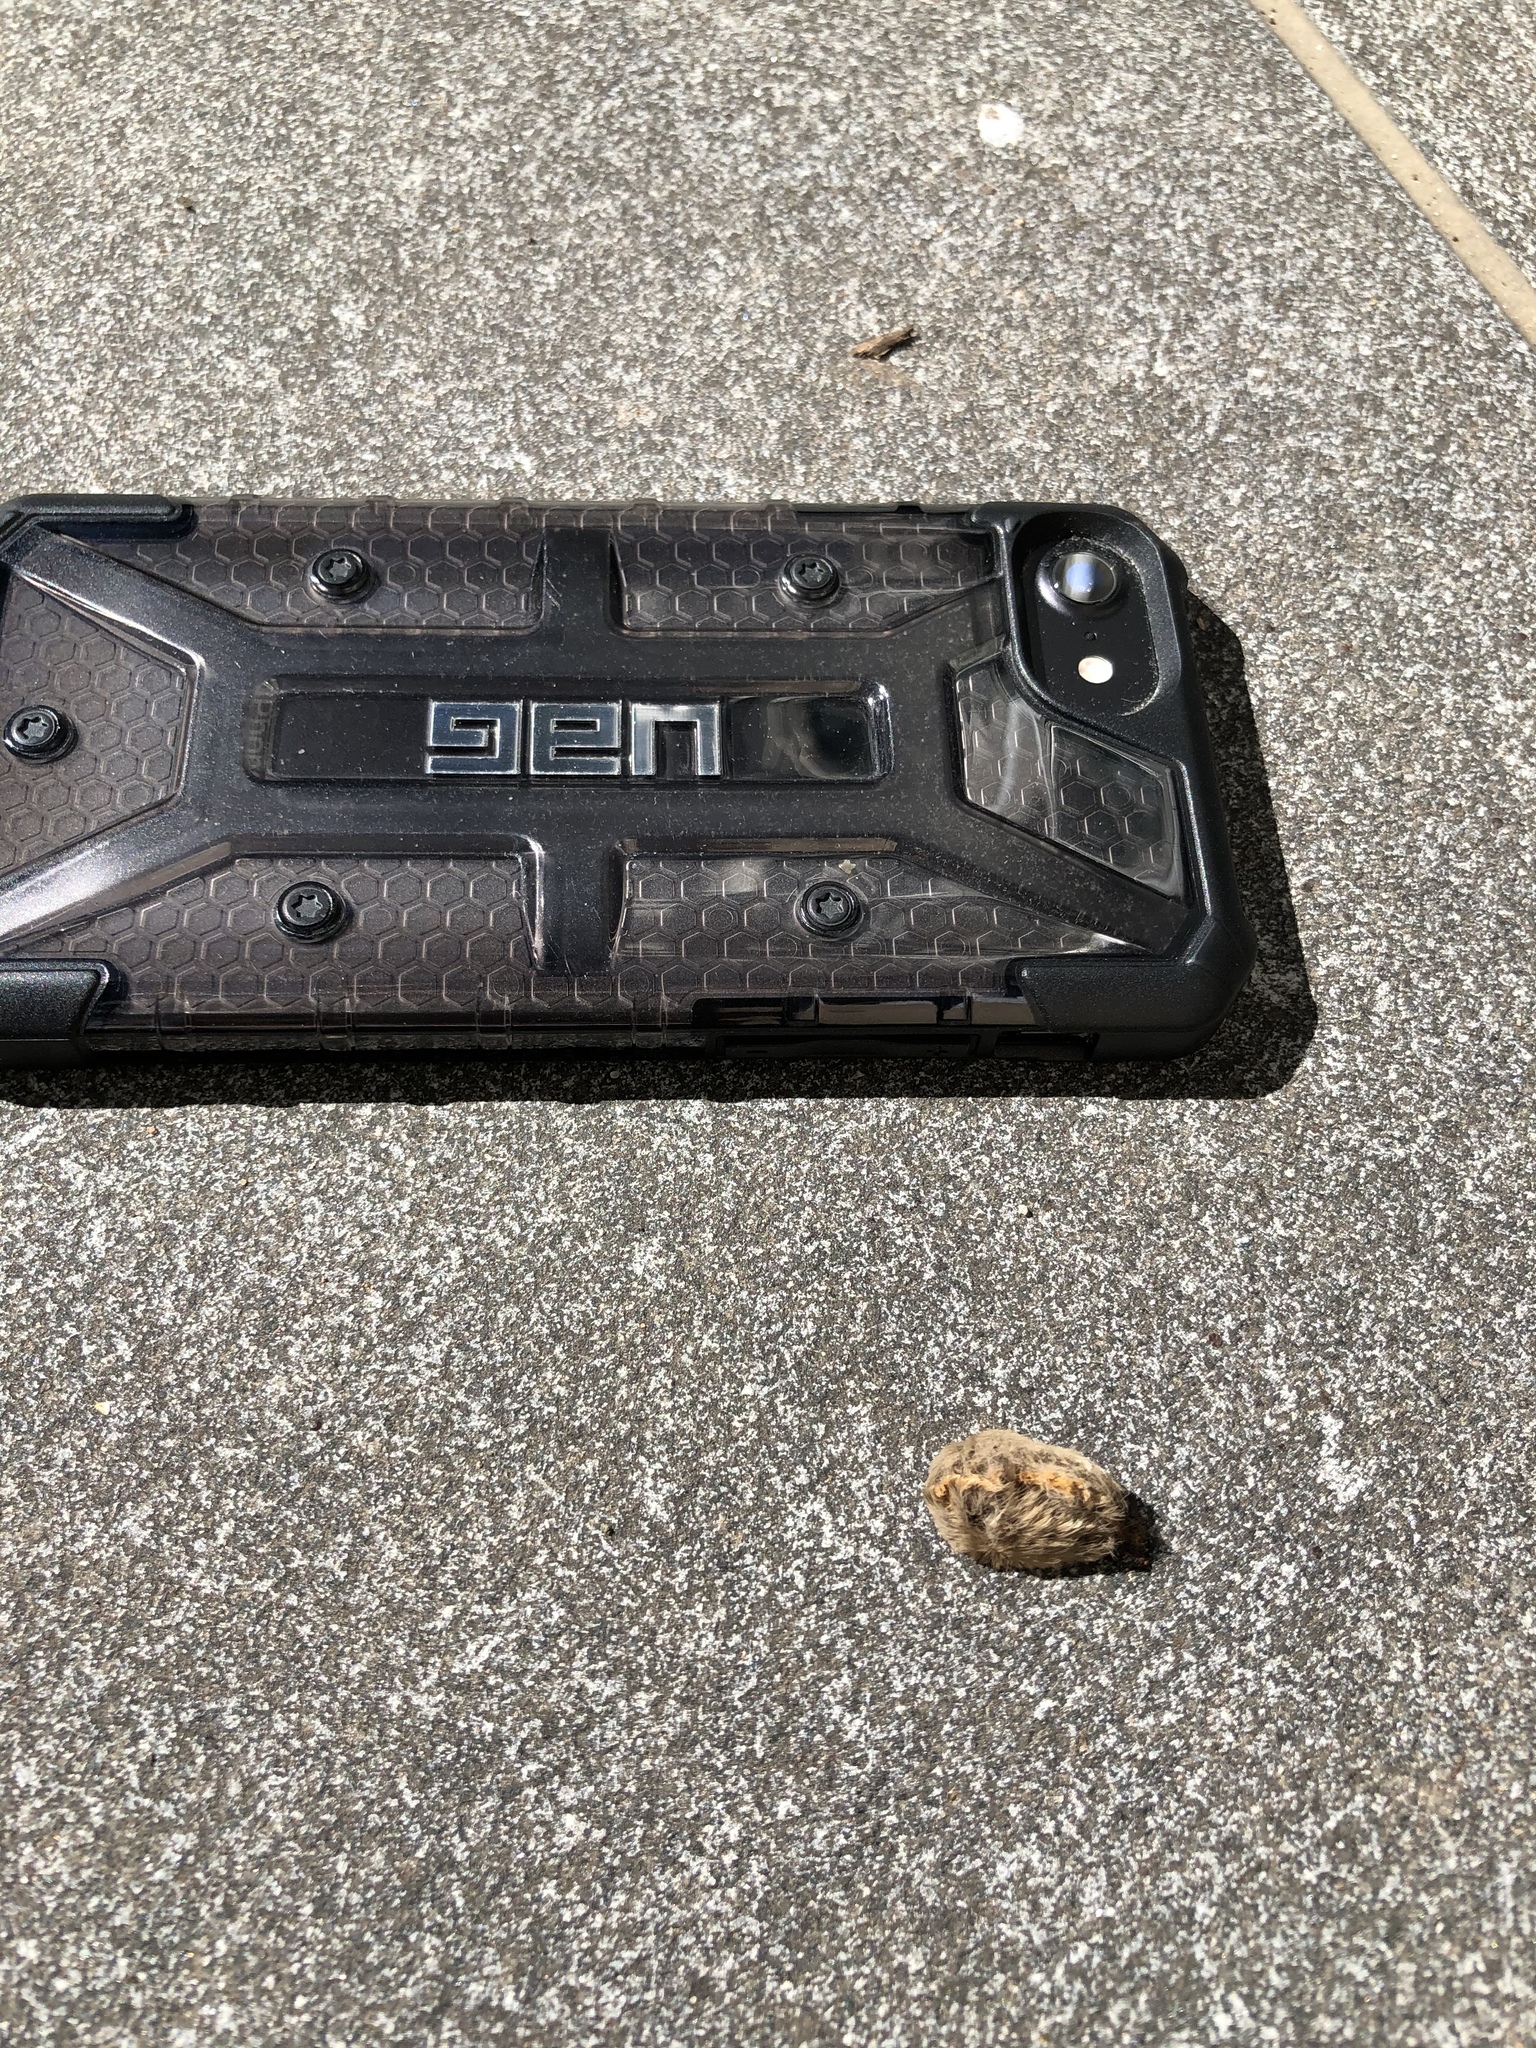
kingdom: Animalia
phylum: Arthropoda
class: Insecta
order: Lepidoptera
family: Megalopygidae
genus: Megalopyge
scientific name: Megalopyge opercularis
